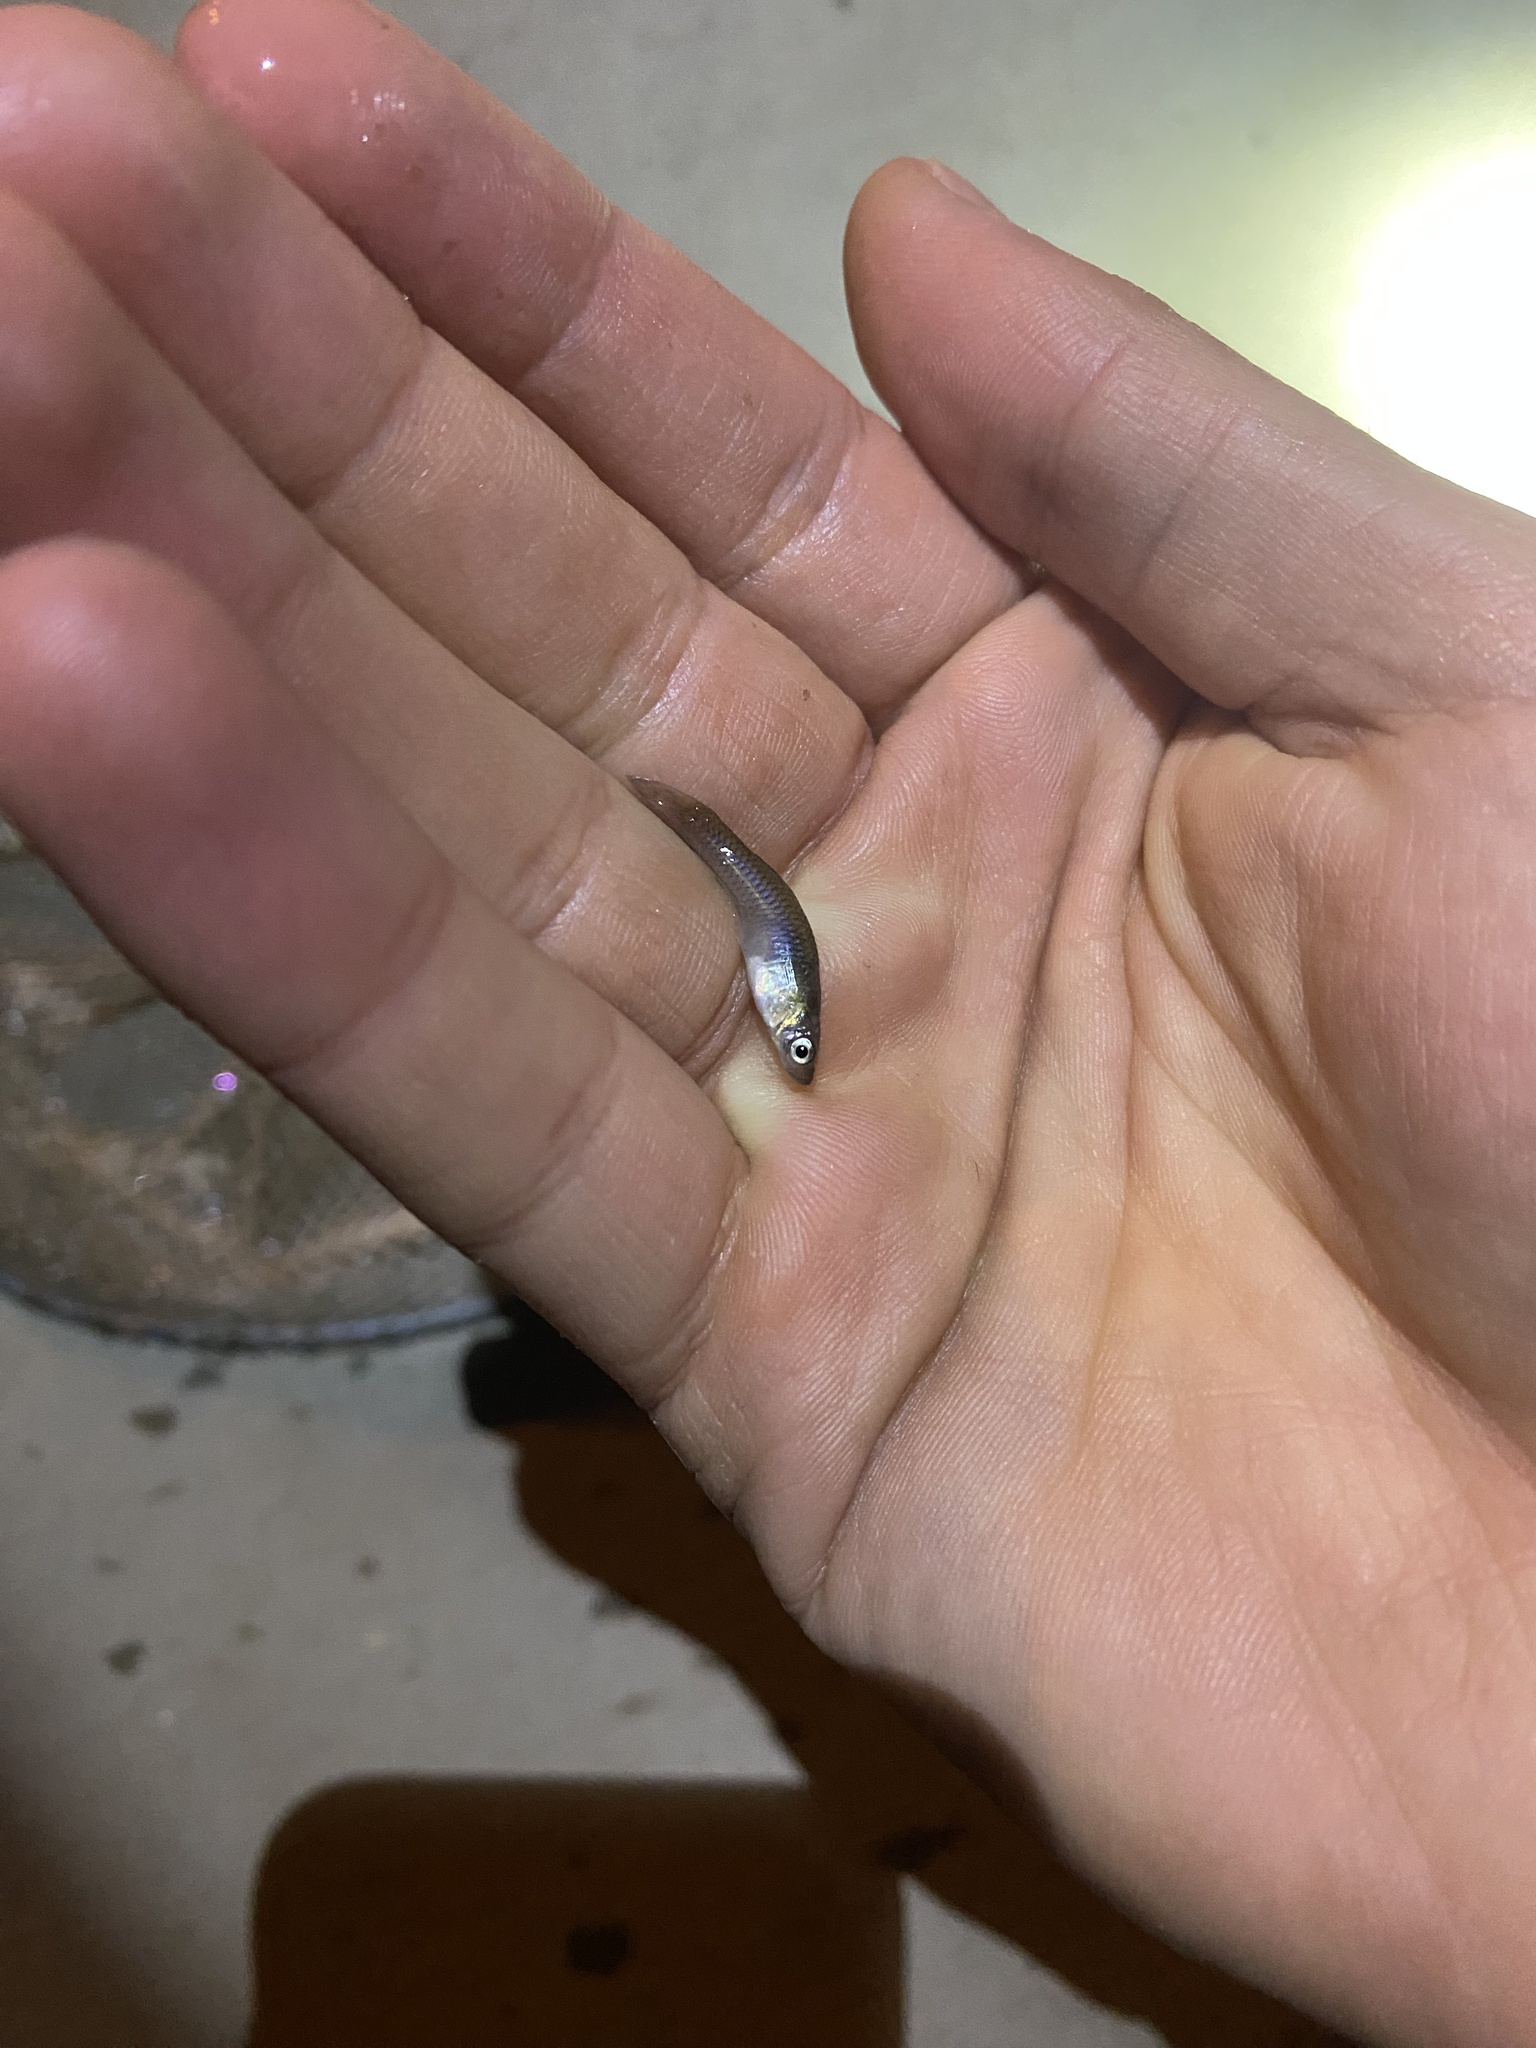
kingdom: Animalia
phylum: Chordata
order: Cyprinodontiformes
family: Poeciliidae
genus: Gambusia
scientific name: Gambusia affinis
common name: Mosquitofish
